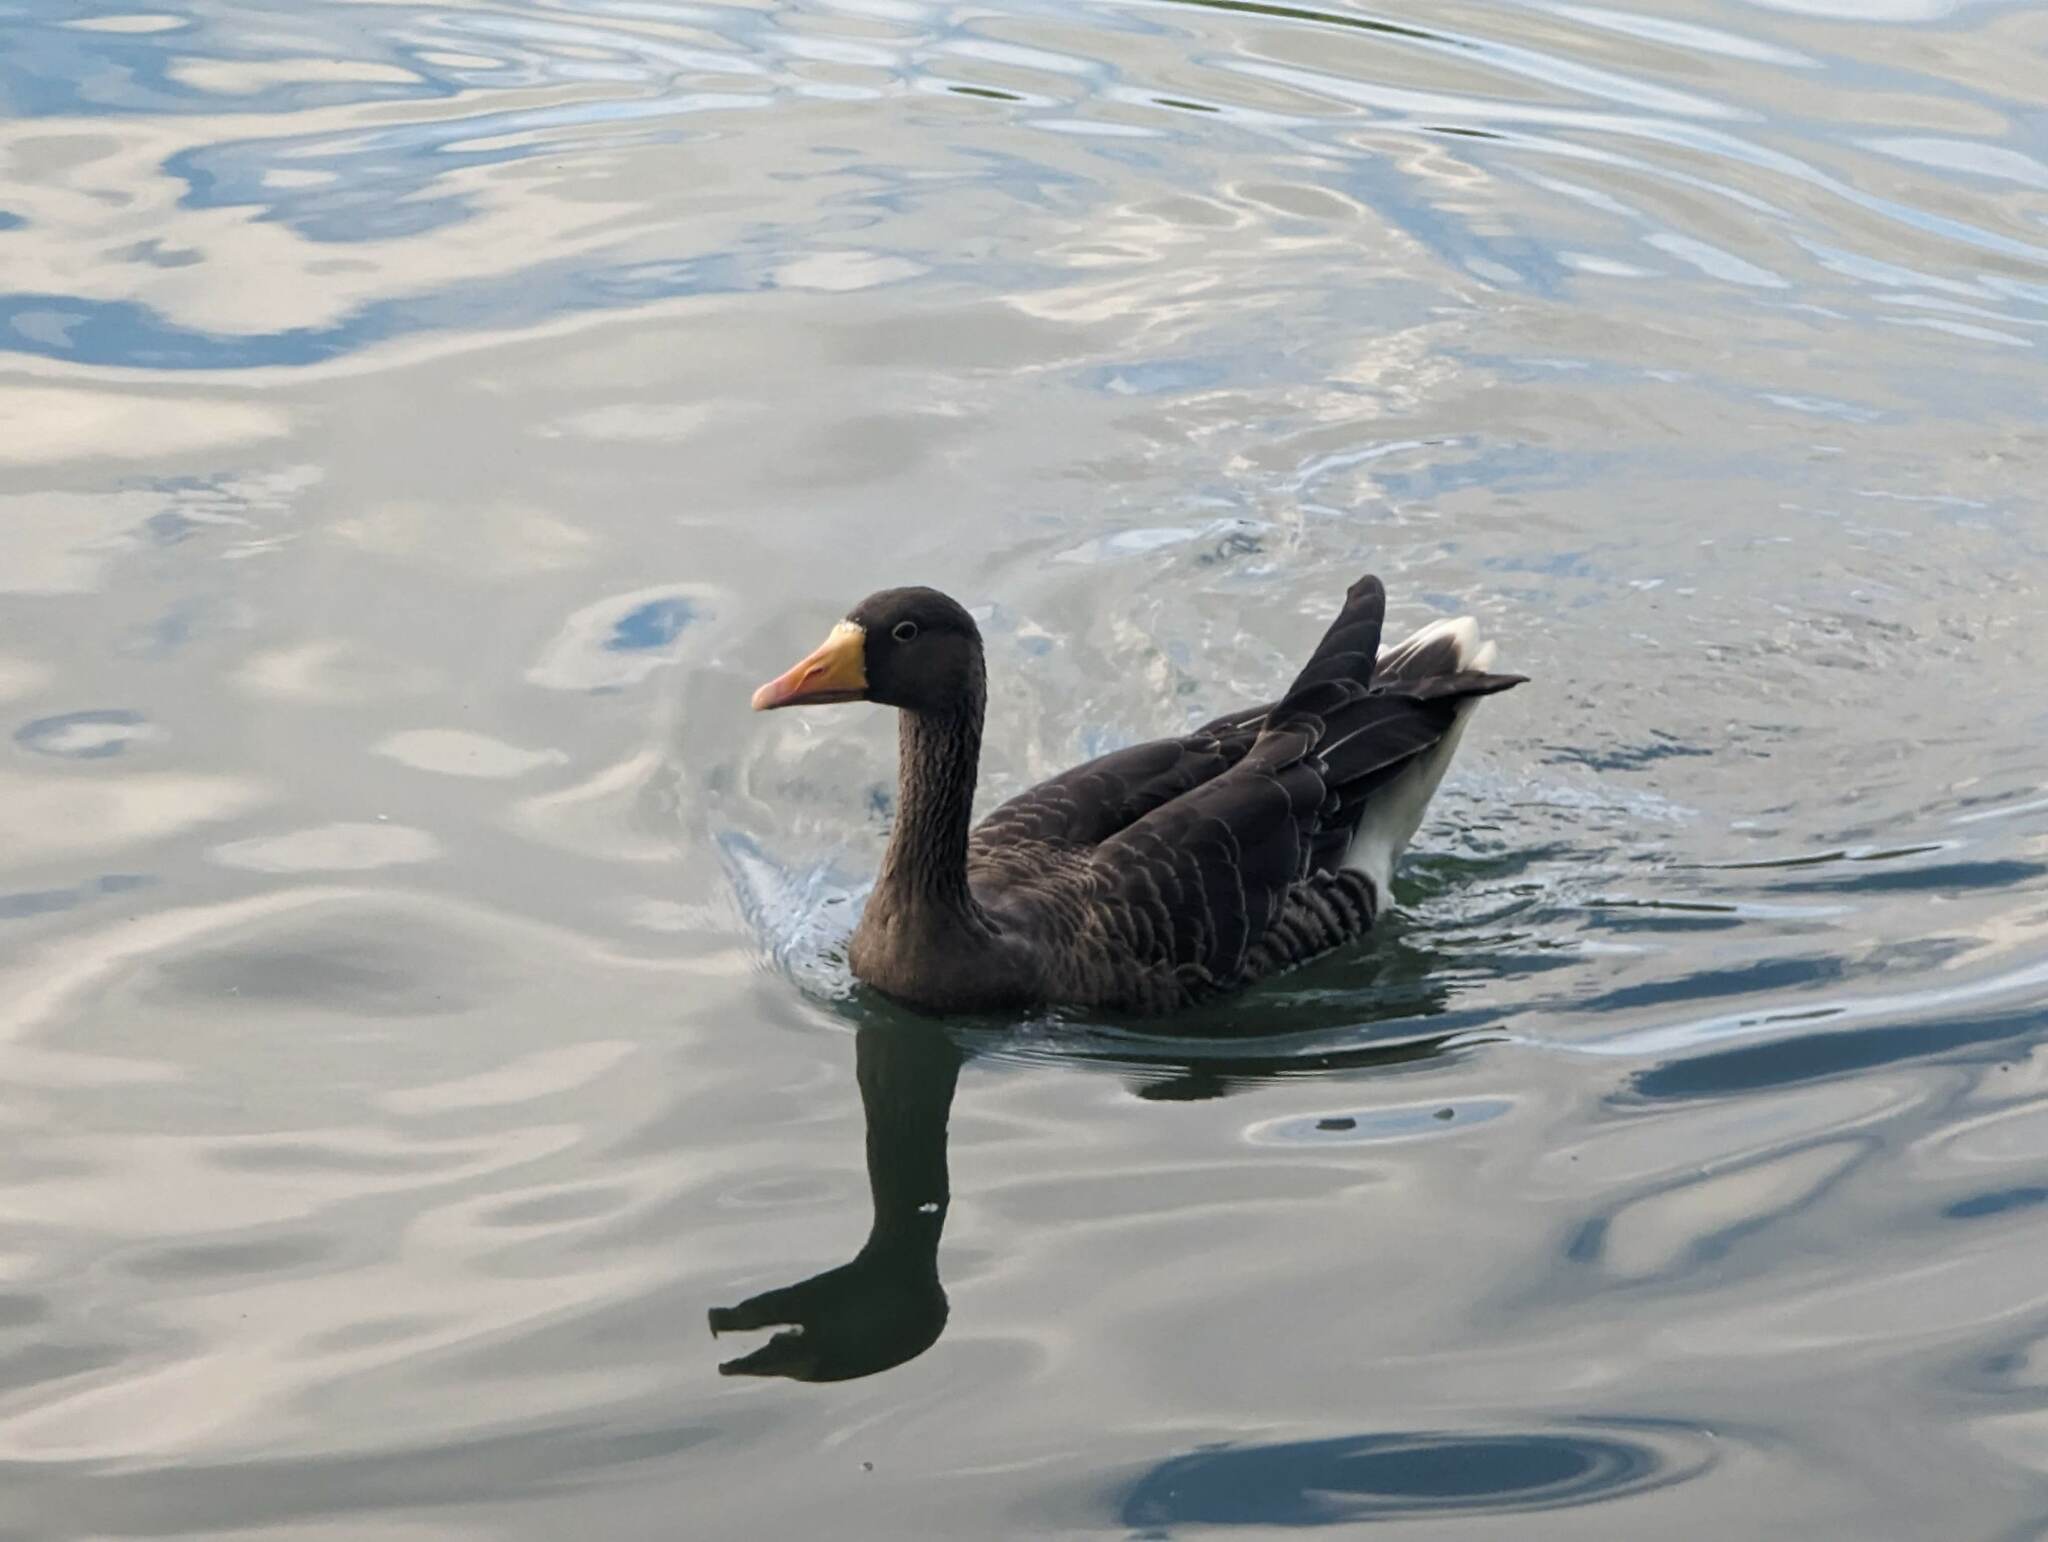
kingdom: Animalia
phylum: Chordata
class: Aves
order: Anseriformes
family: Anatidae
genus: Anser
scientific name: Anser anser
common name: Greylag goose
